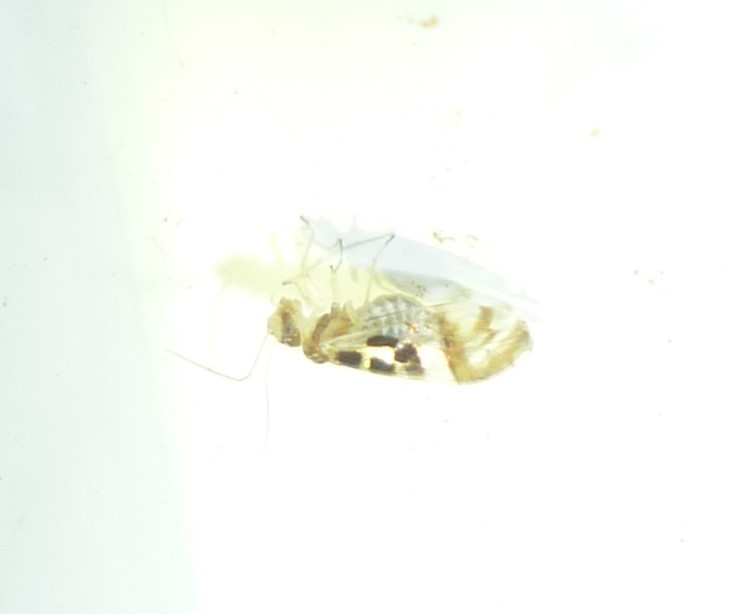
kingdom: Animalia
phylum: Arthropoda
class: Insecta
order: Psocodea
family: Stenopsocidae
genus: Graphopsocus
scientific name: Graphopsocus cruciatus
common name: Lizard bark louse
